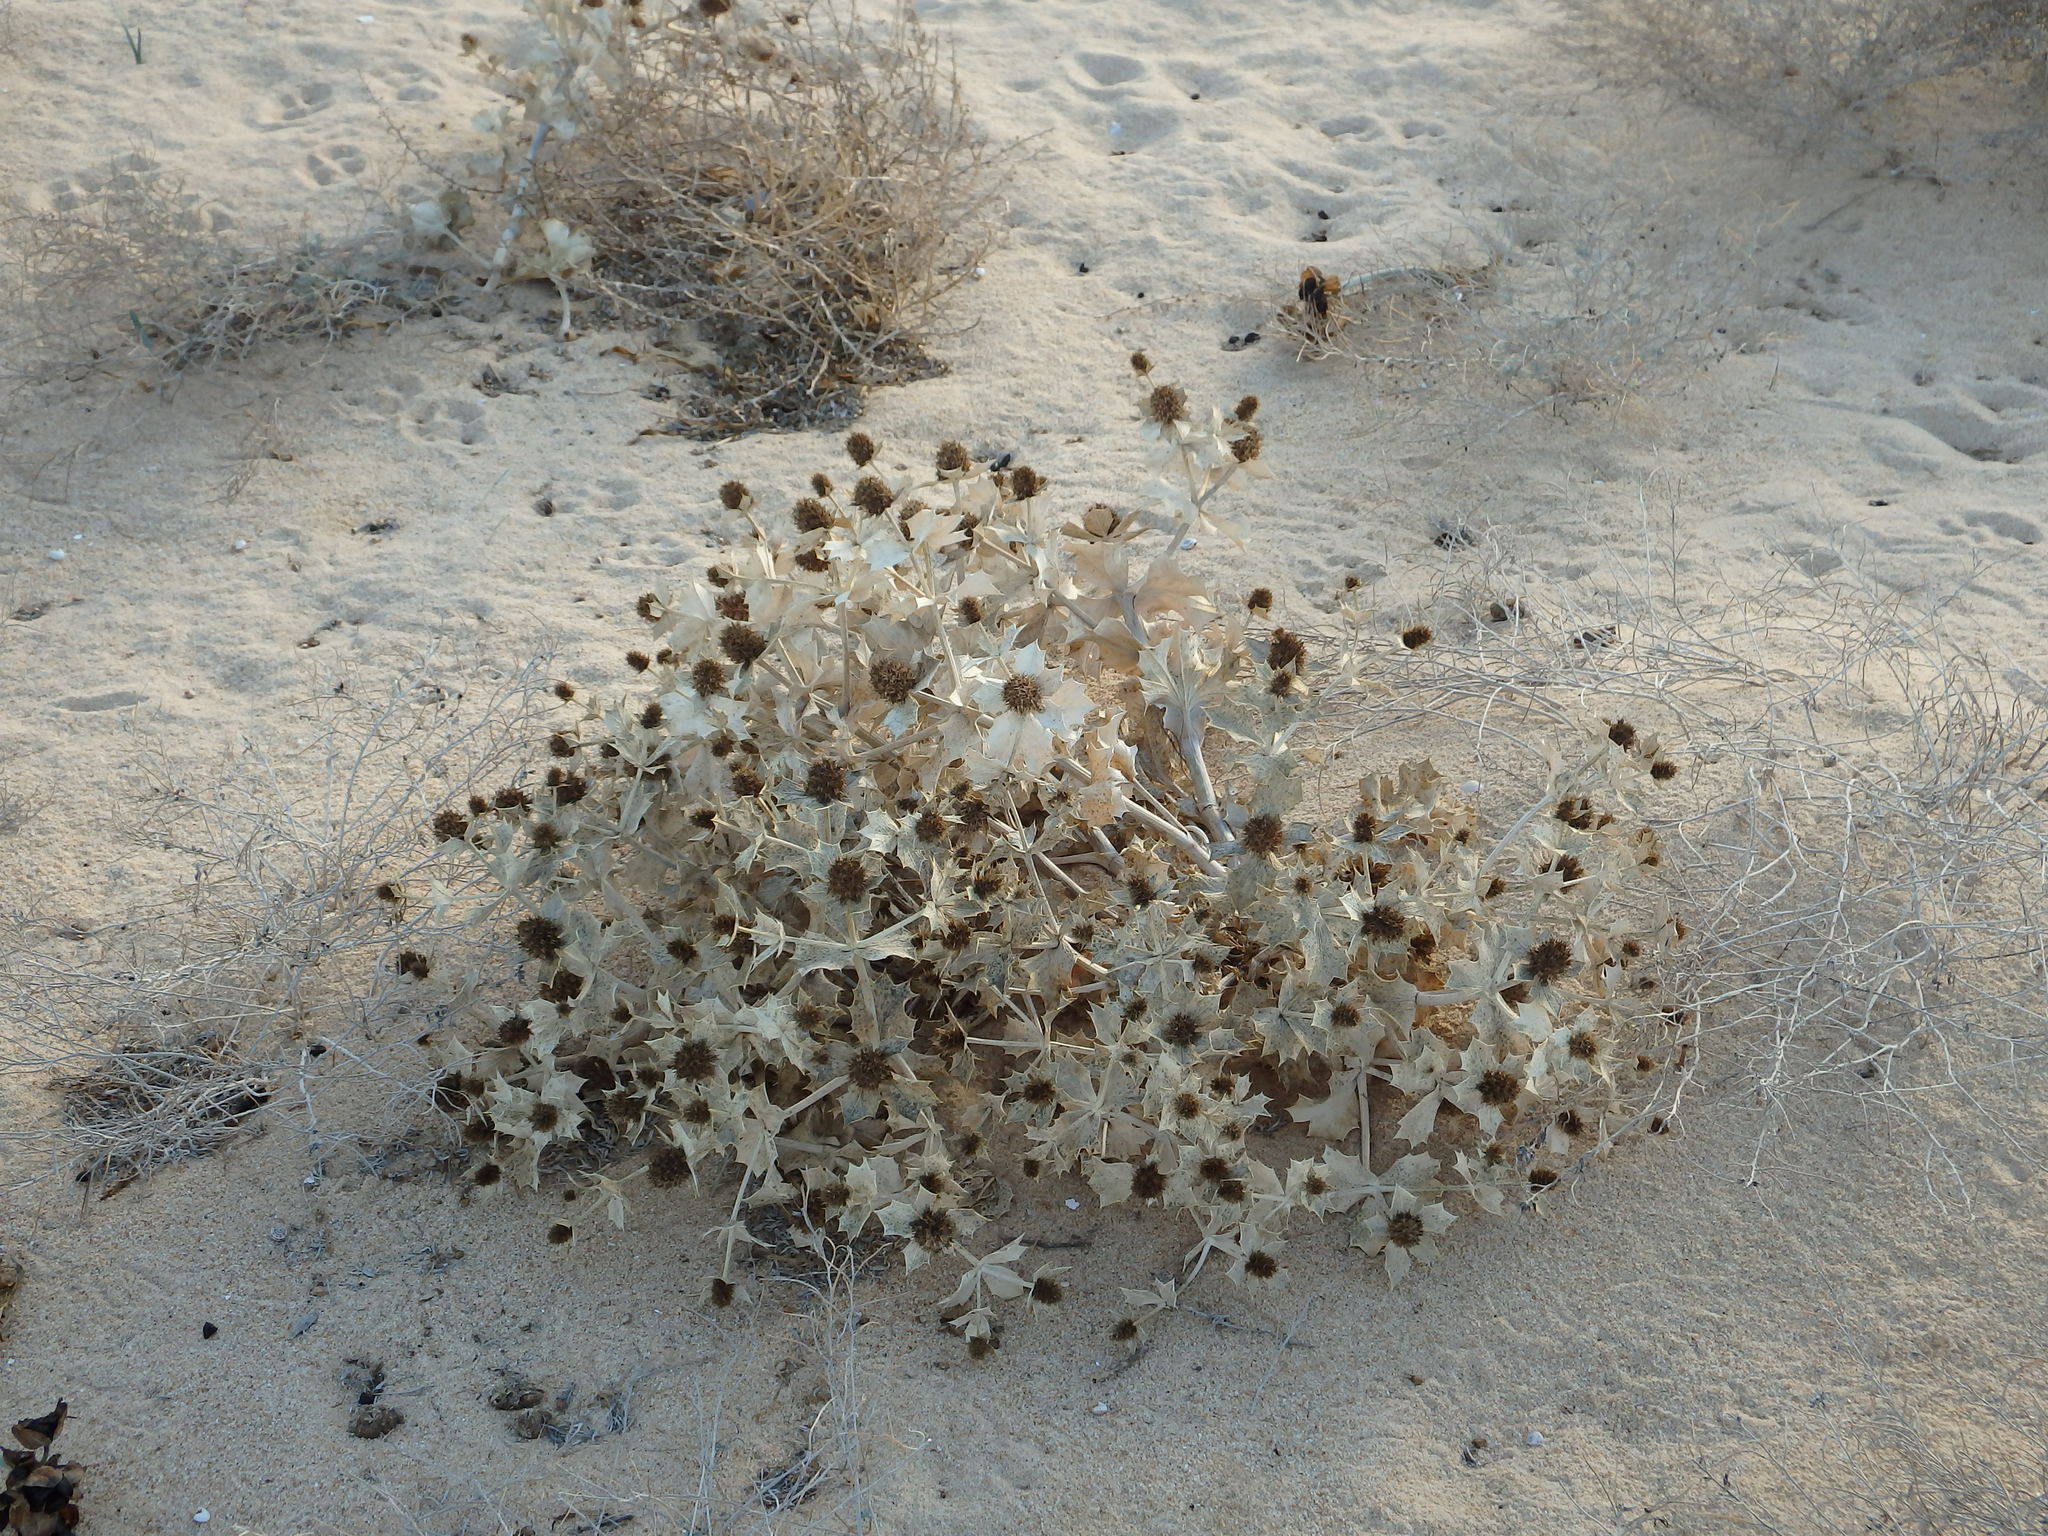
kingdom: Plantae
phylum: Tracheophyta
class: Magnoliopsida
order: Apiales
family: Apiaceae
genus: Eryngium
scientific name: Eryngium maritimum
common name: Sea-holly
